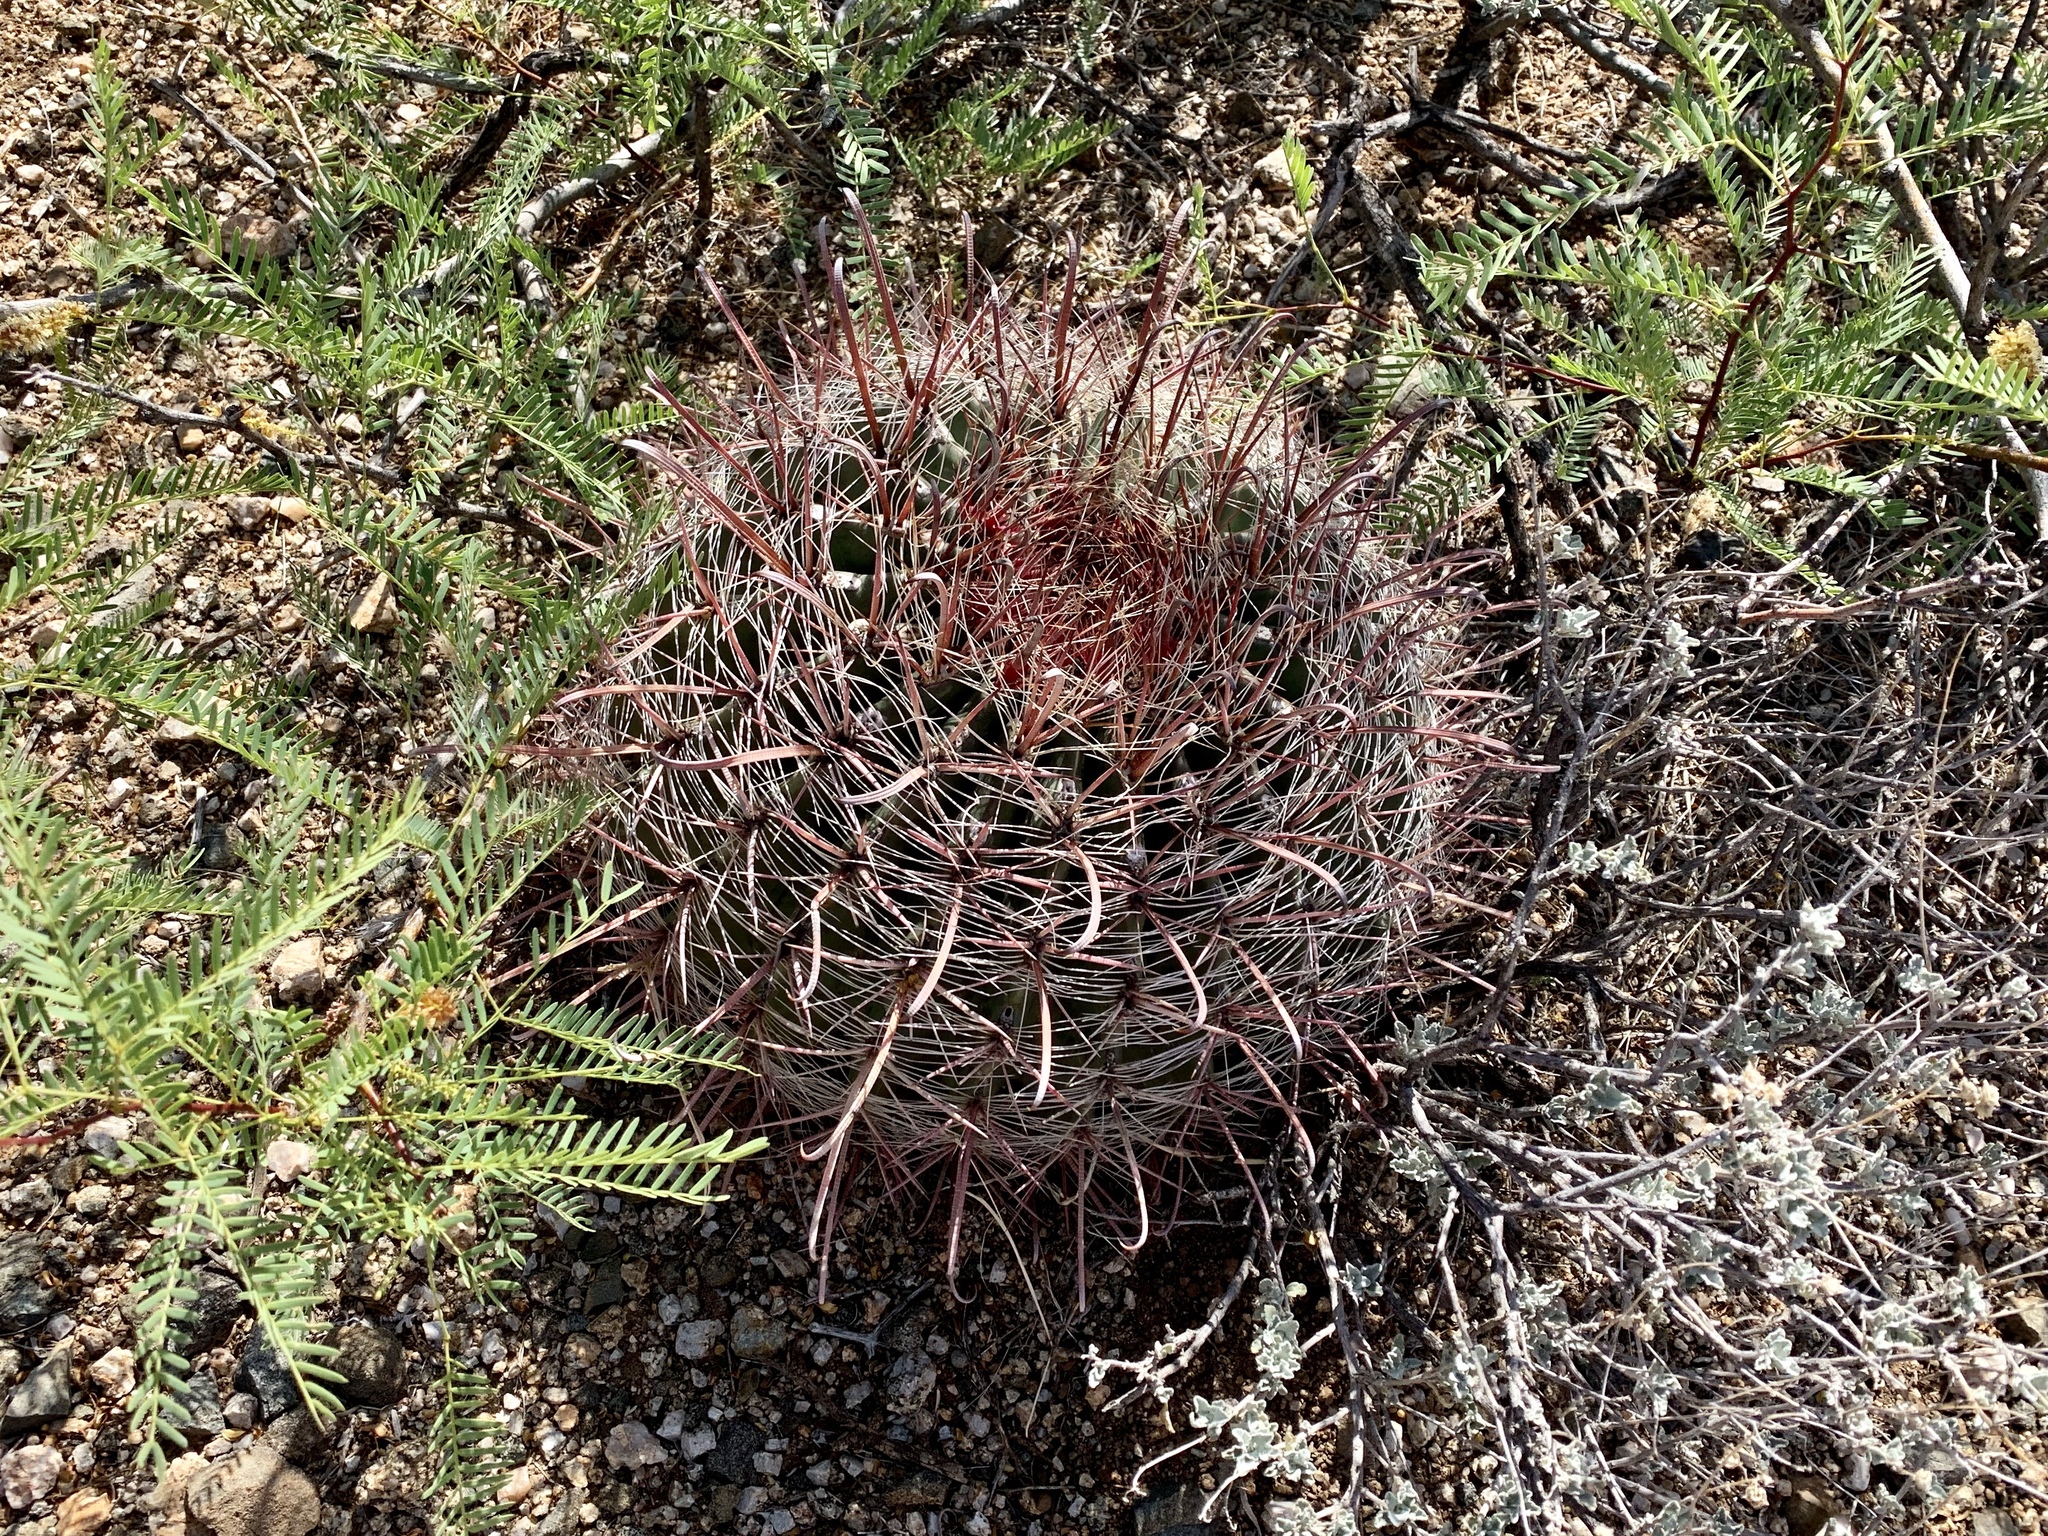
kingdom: Plantae
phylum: Tracheophyta
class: Magnoliopsida
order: Caryophyllales
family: Cactaceae
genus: Ferocactus
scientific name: Ferocactus wislizeni
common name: Candy barrel cactus
